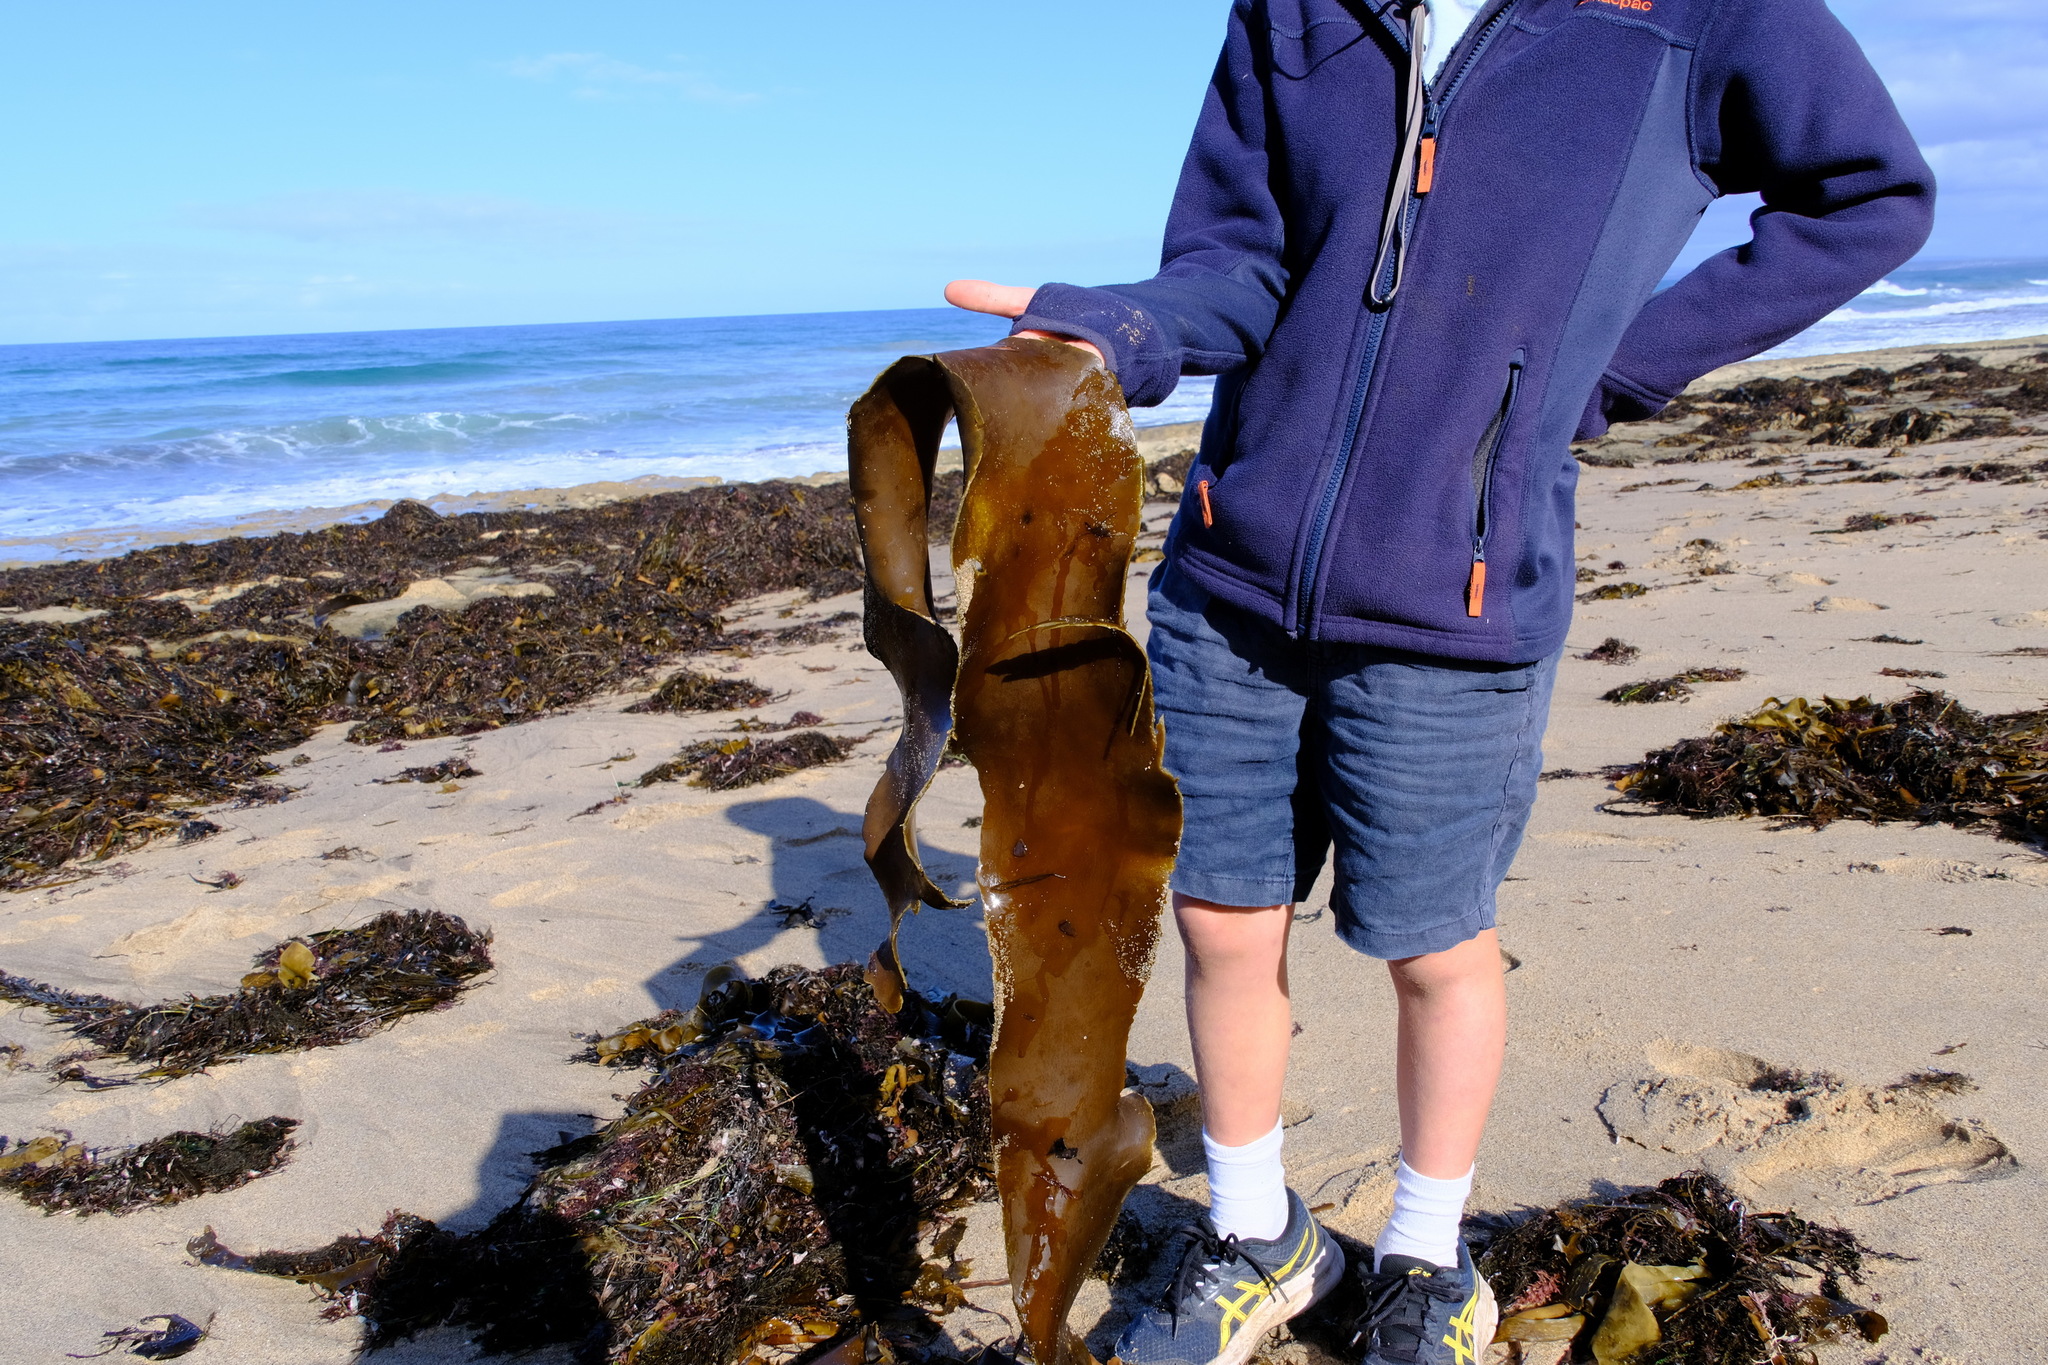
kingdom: Chromista
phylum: Ochrophyta
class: Phaeophyceae
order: Fucales
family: Durvillaeaceae
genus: Durvillaea
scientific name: Durvillaea
